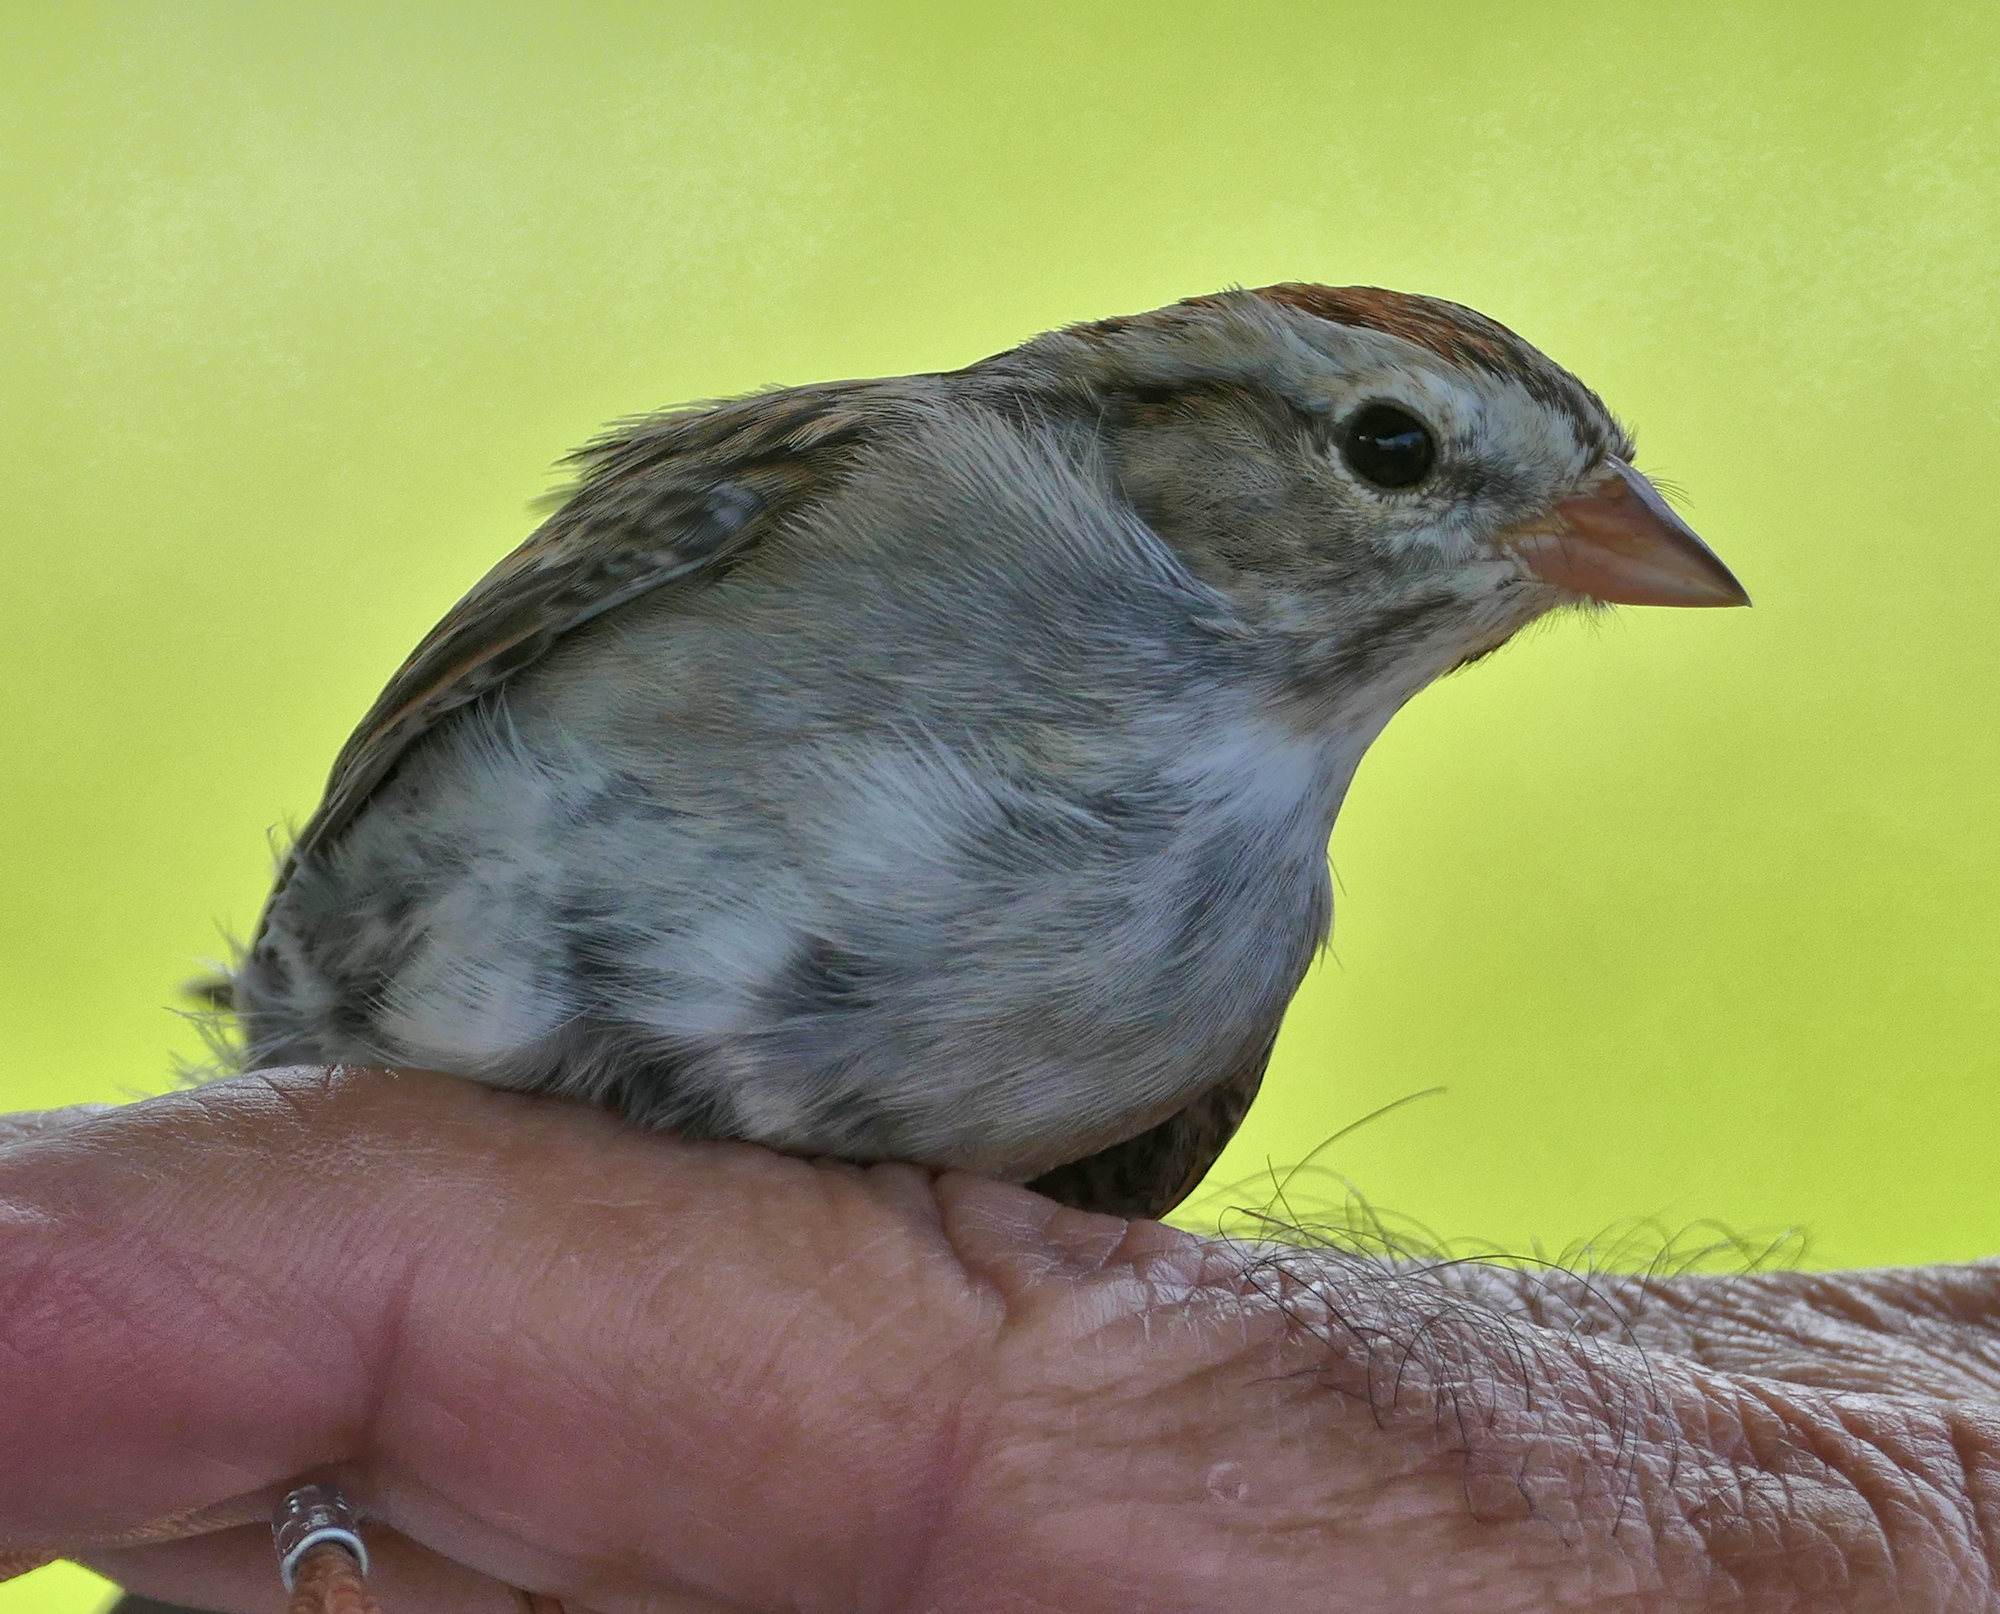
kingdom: Animalia
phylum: Chordata
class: Aves
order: Passeriformes
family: Passerellidae
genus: Spizella
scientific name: Spizella passerina
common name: Chipping sparrow
